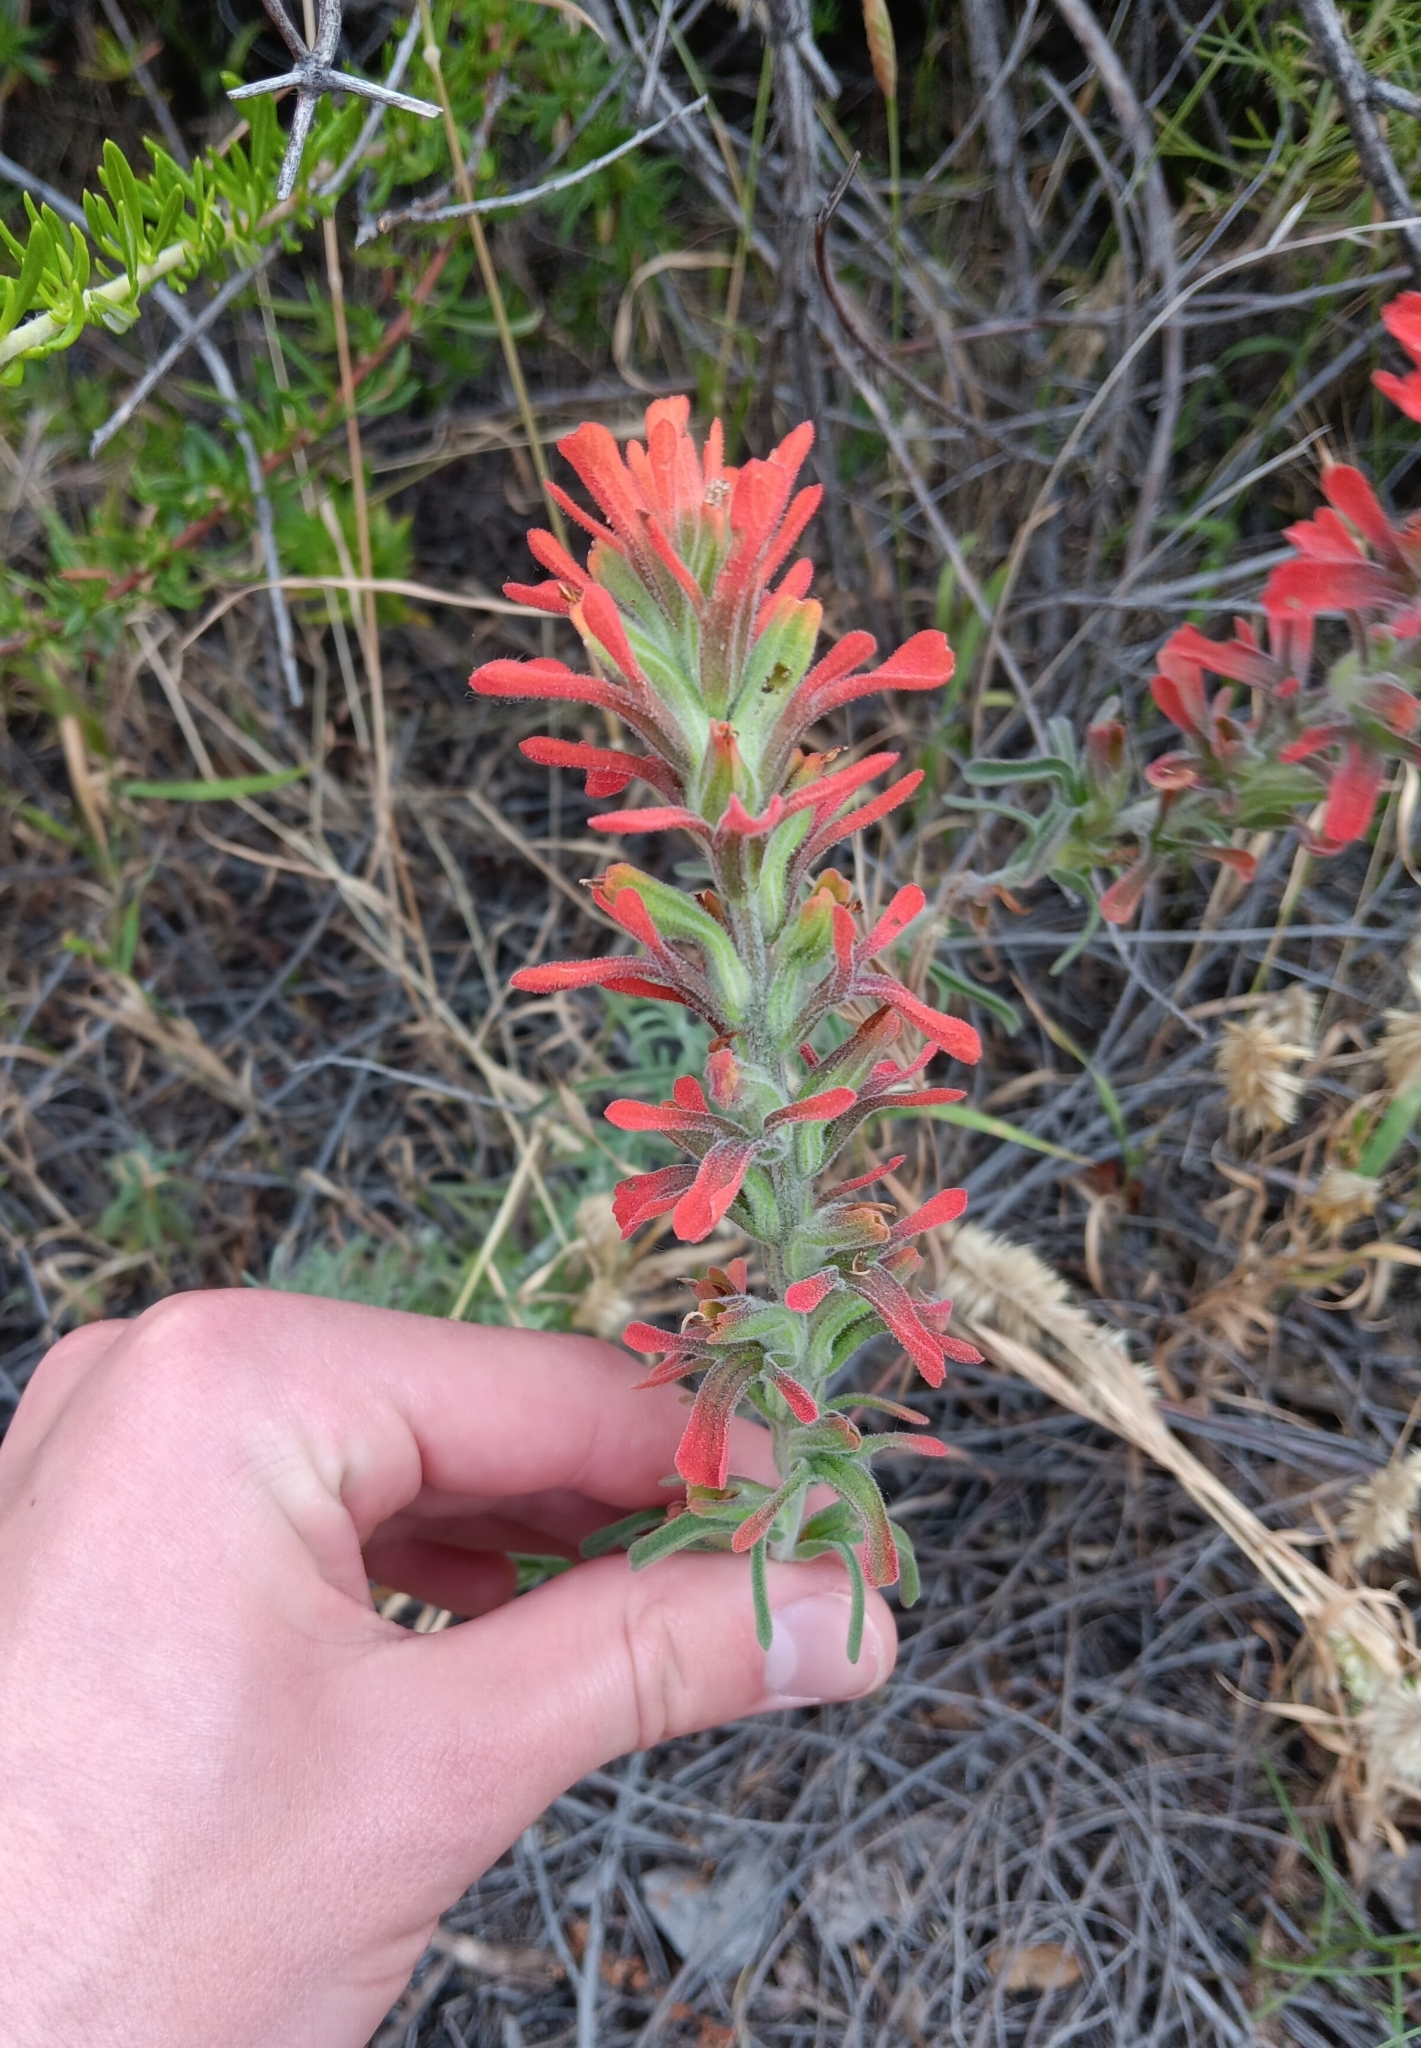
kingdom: Plantae
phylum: Tracheophyta
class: Magnoliopsida
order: Lamiales
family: Orobanchaceae
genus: Castilleja
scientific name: Castilleja foliolosa
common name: Woolly indian paintbrush
